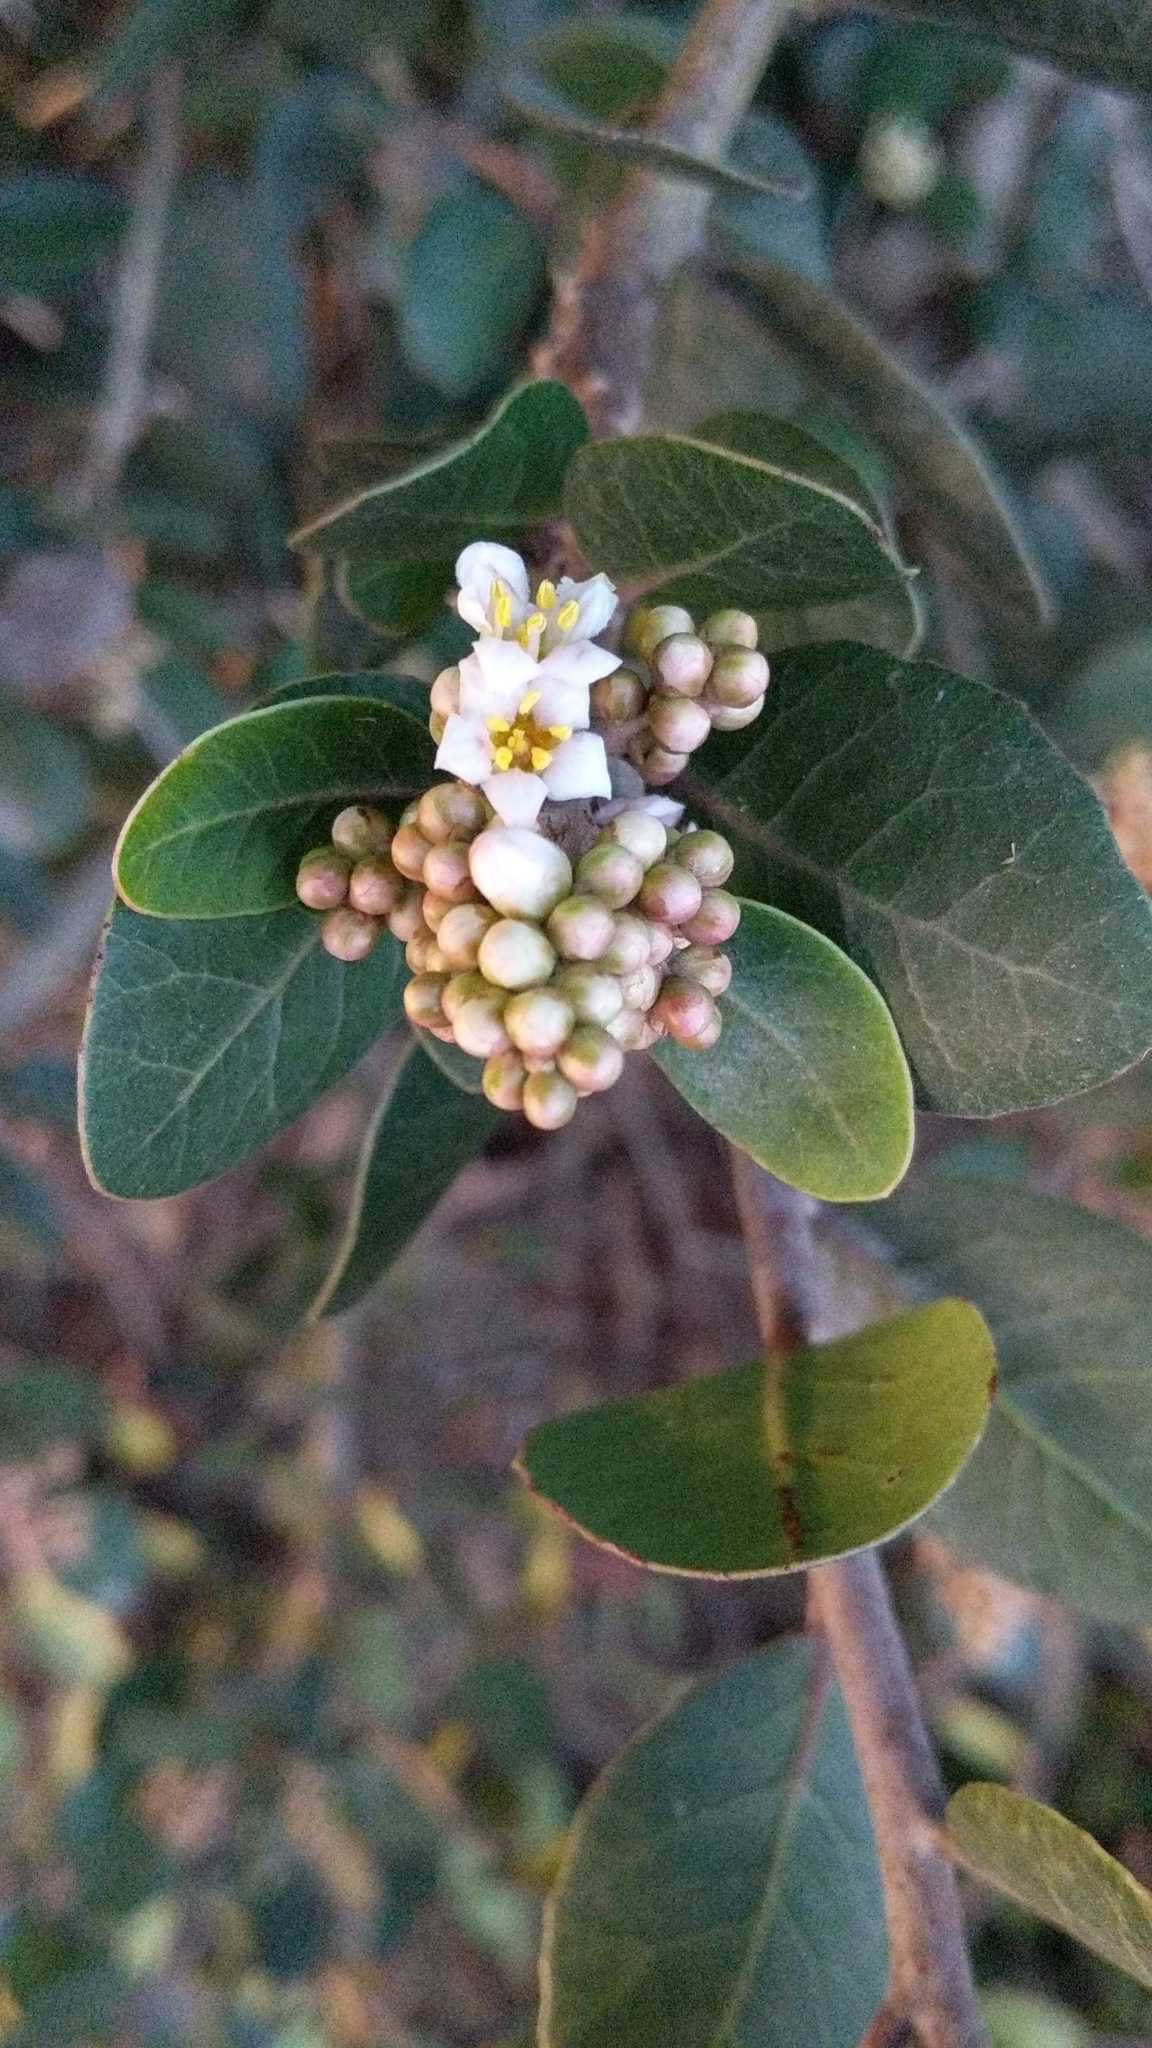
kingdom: Plantae
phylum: Tracheophyta
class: Magnoliopsida
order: Sapindales
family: Anacardiaceae
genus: Rhus
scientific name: Rhus integrifolia
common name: Lemonade sumac
